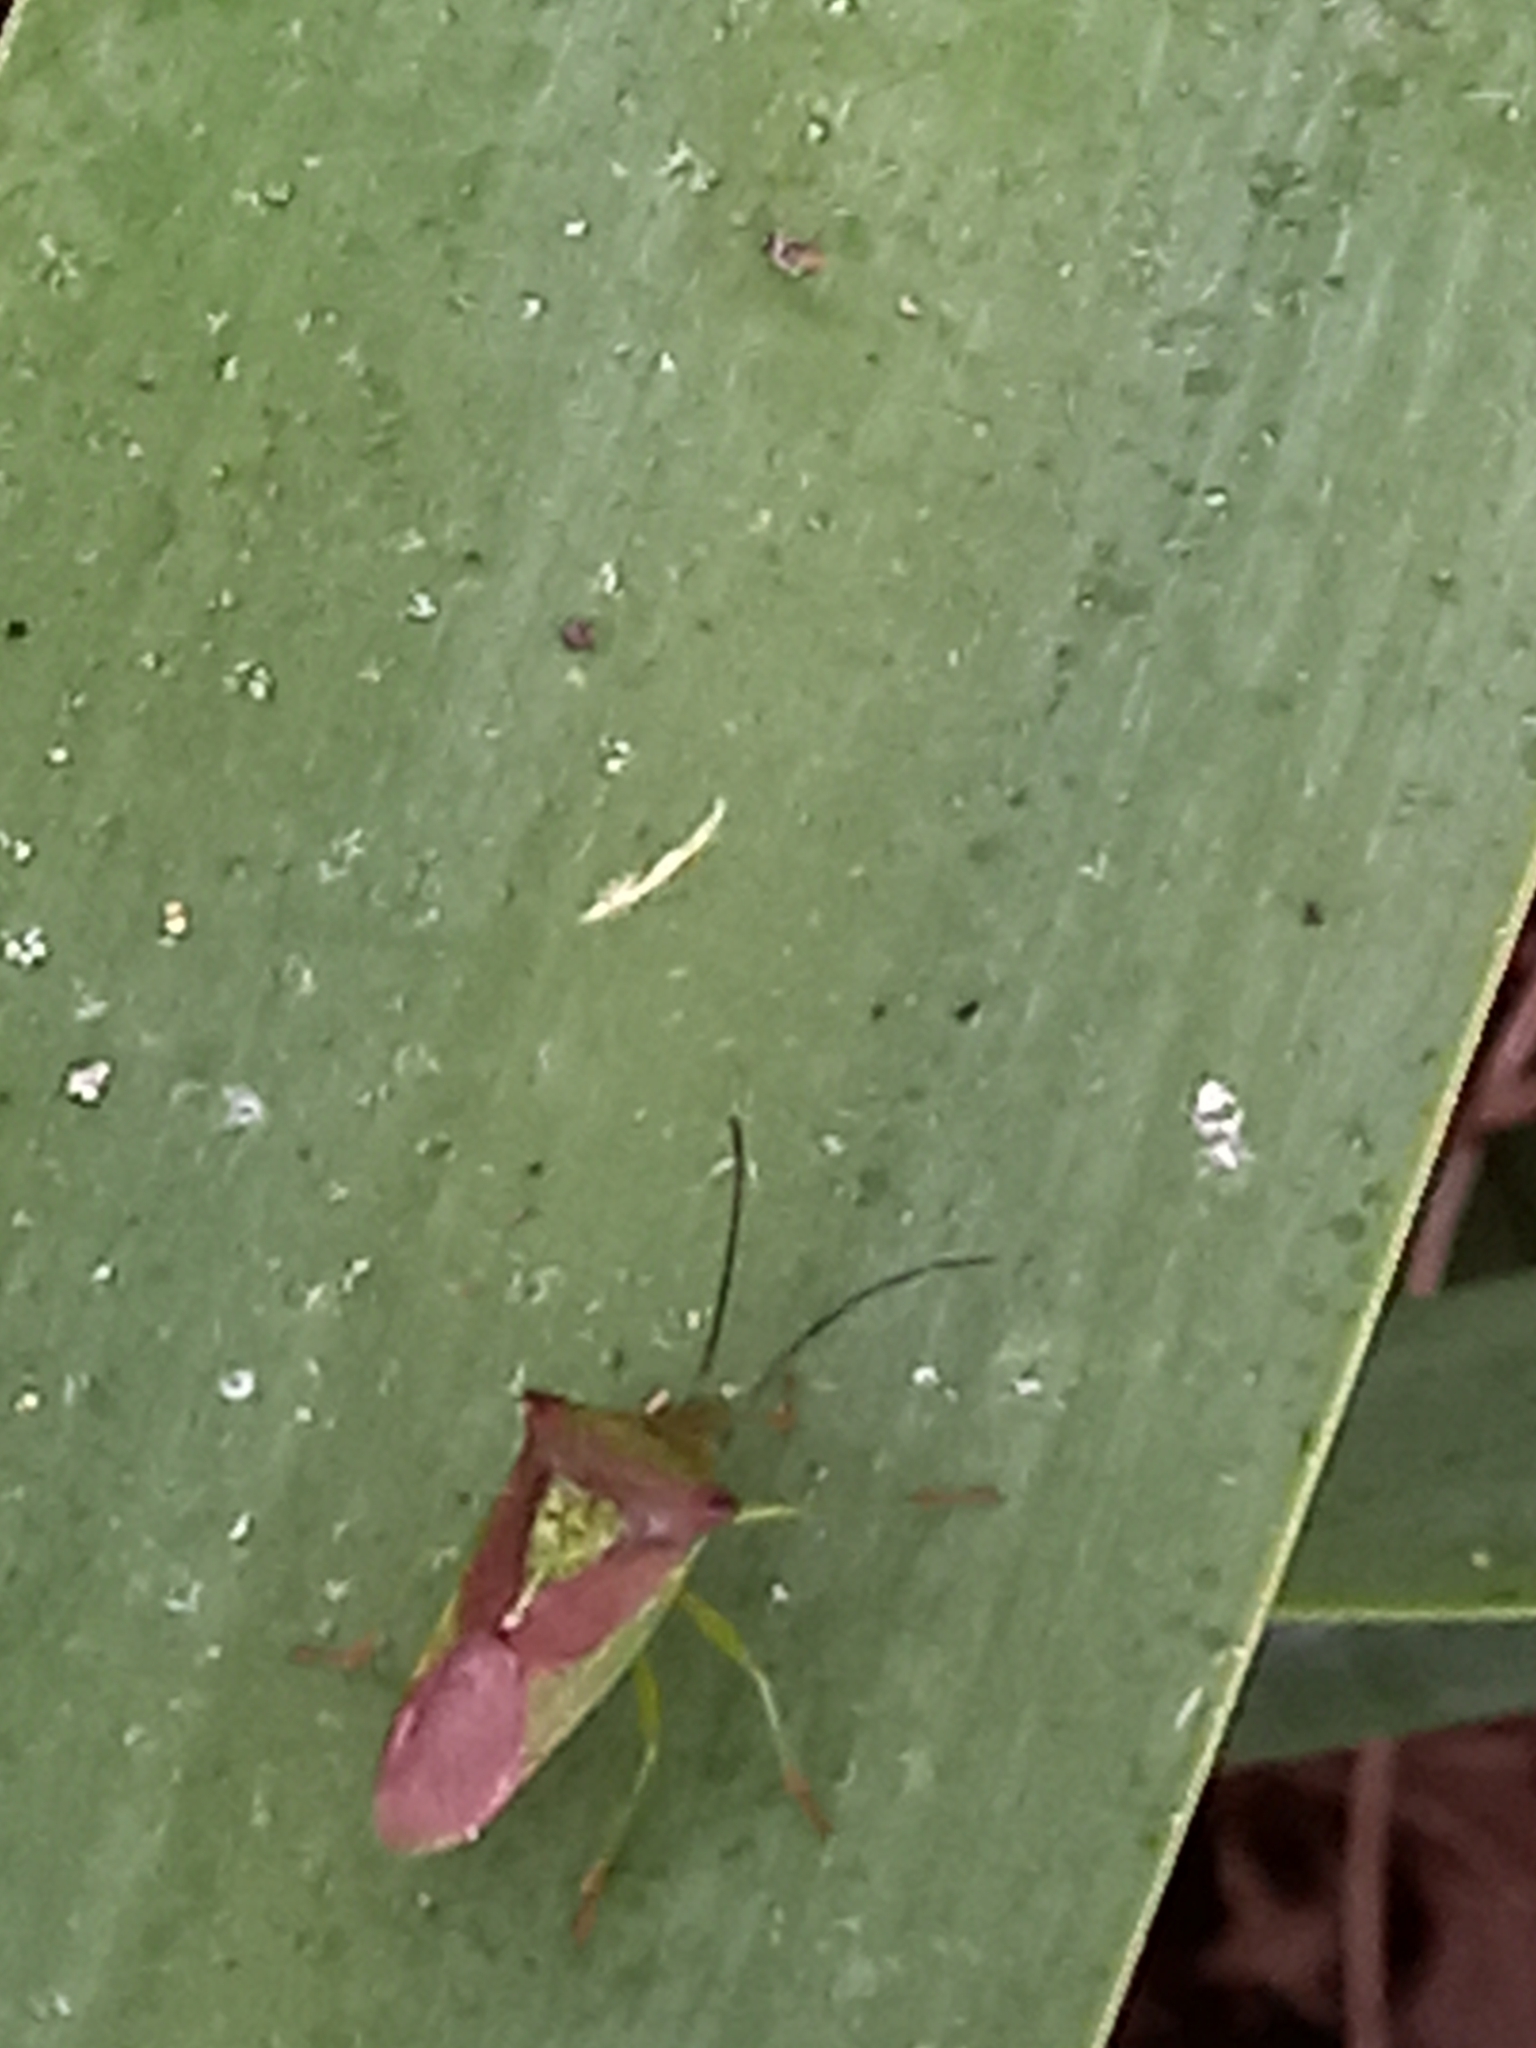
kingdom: Animalia
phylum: Arthropoda
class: Insecta
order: Hemiptera
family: Acanthosomatidae
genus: Acanthosoma
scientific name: Acanthosoma haemorrhoidale
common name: Hawthorn shieldbug
